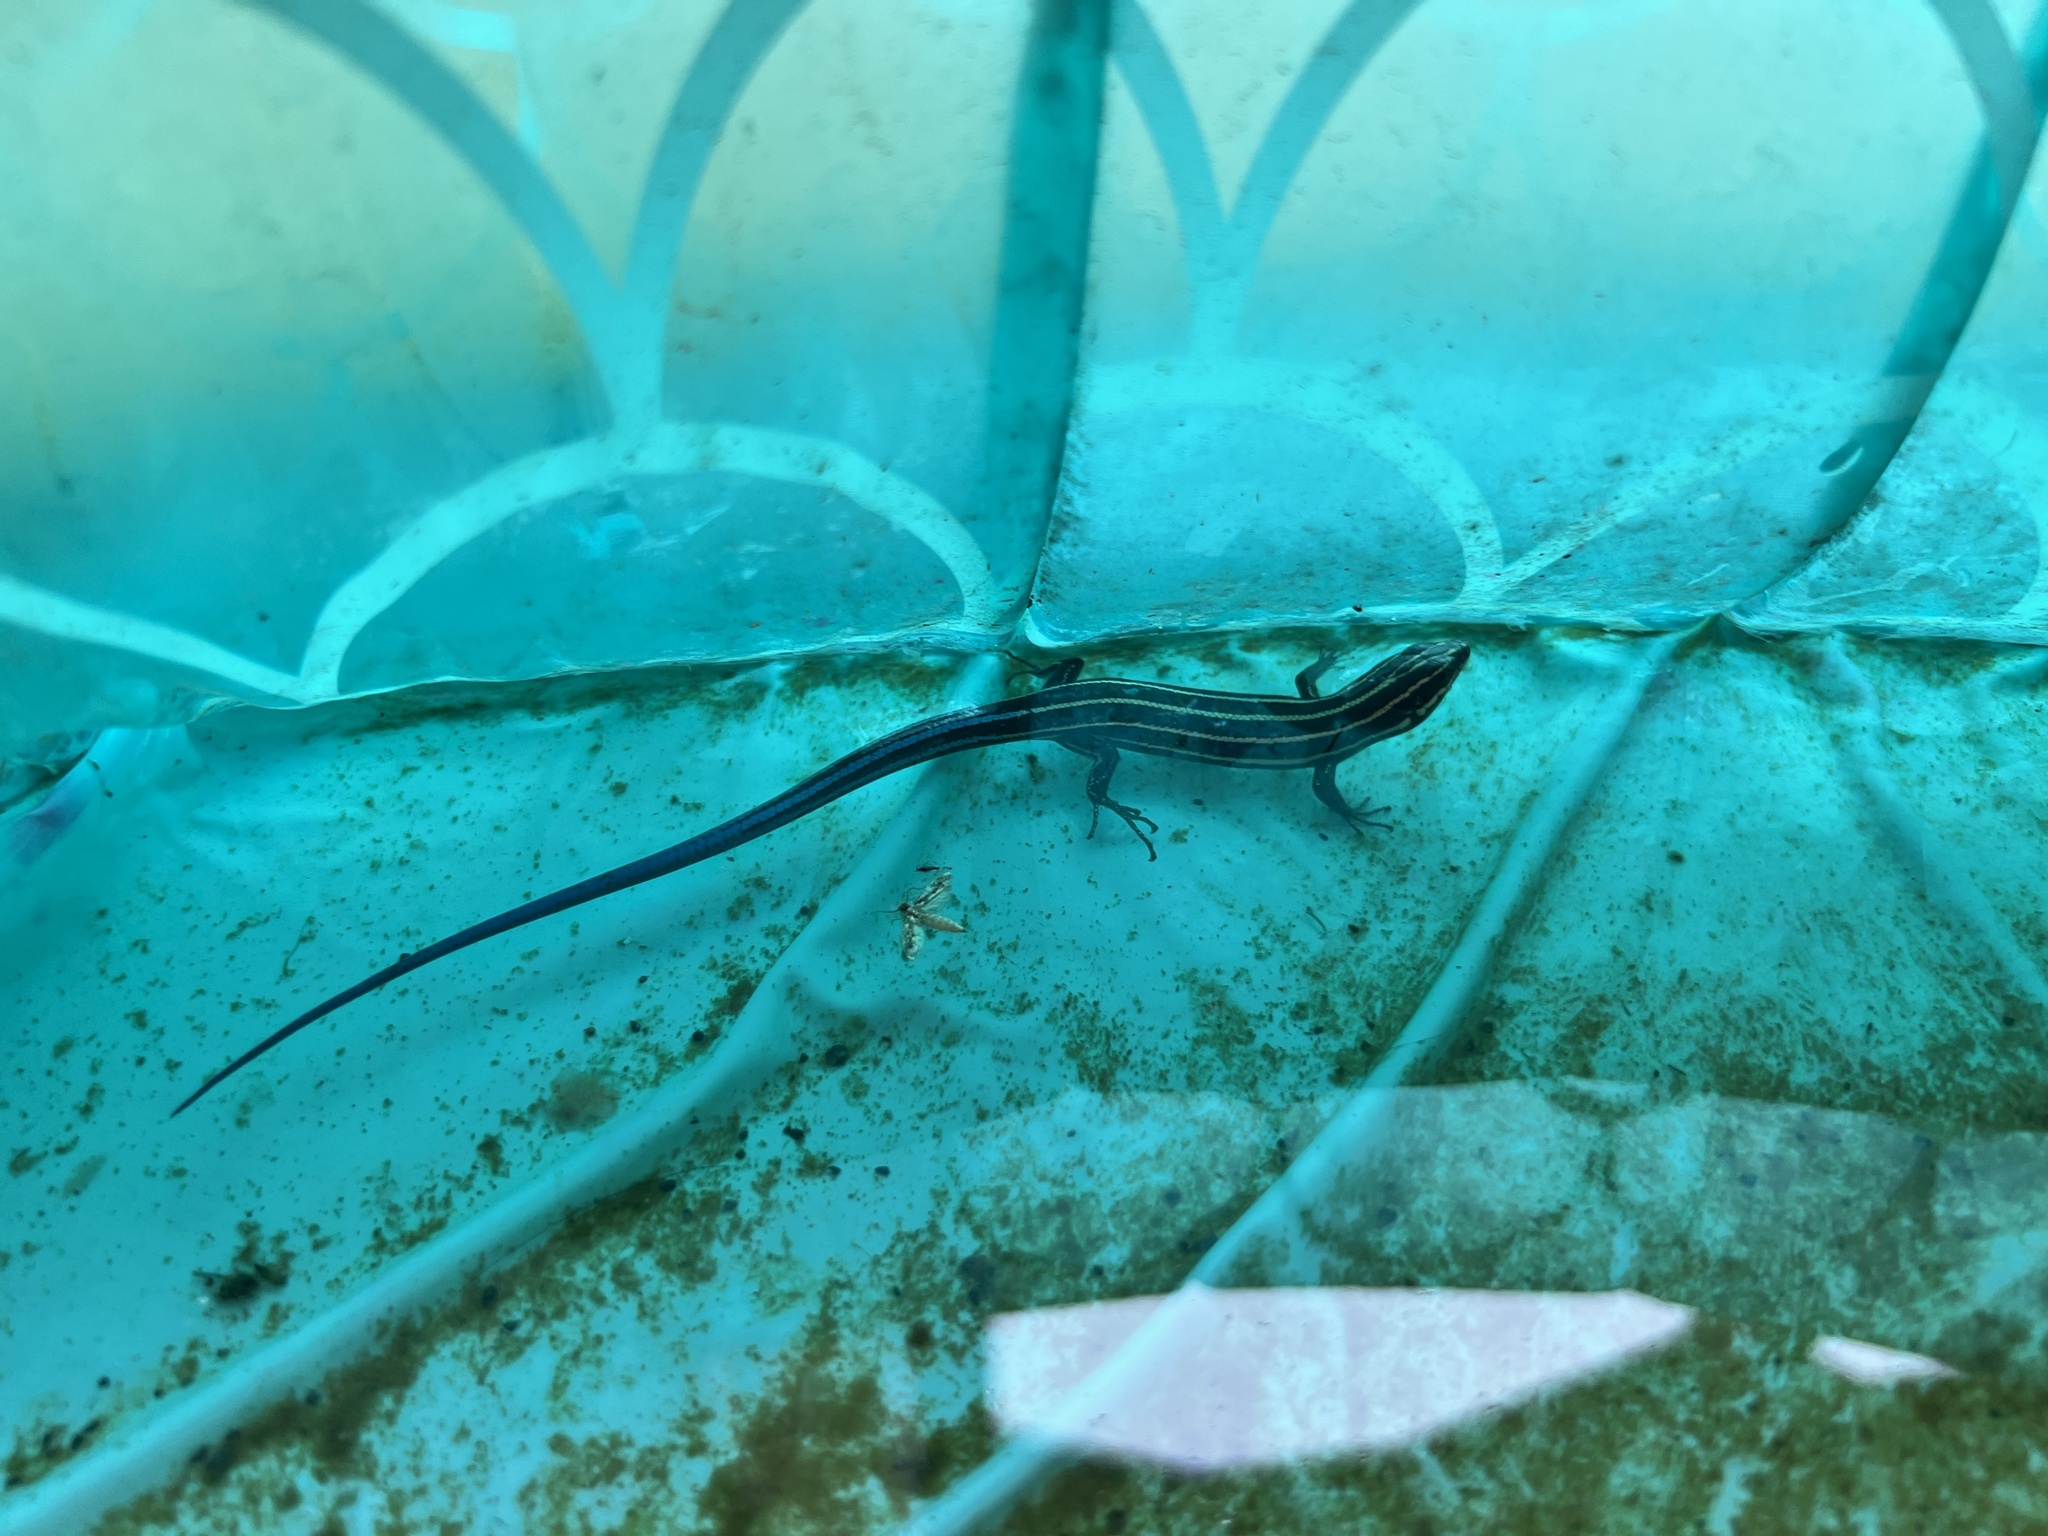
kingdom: Animalia
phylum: Chordata
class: Squamata
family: Scincidae
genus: Plestiodon
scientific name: Plestiodon fasciatus
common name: Five-lined skink
